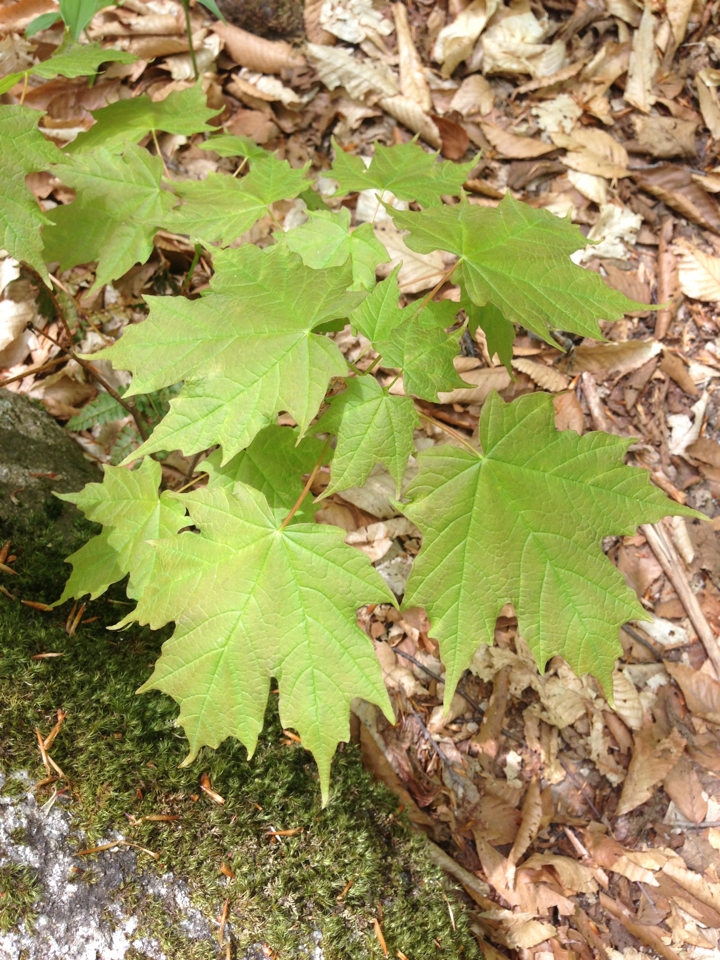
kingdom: Plantae
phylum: Tracheophyta
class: Magnoliopsida
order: Sapindales
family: Sapindaceae
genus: Acer
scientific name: Acer saccharum
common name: Sugar maple
